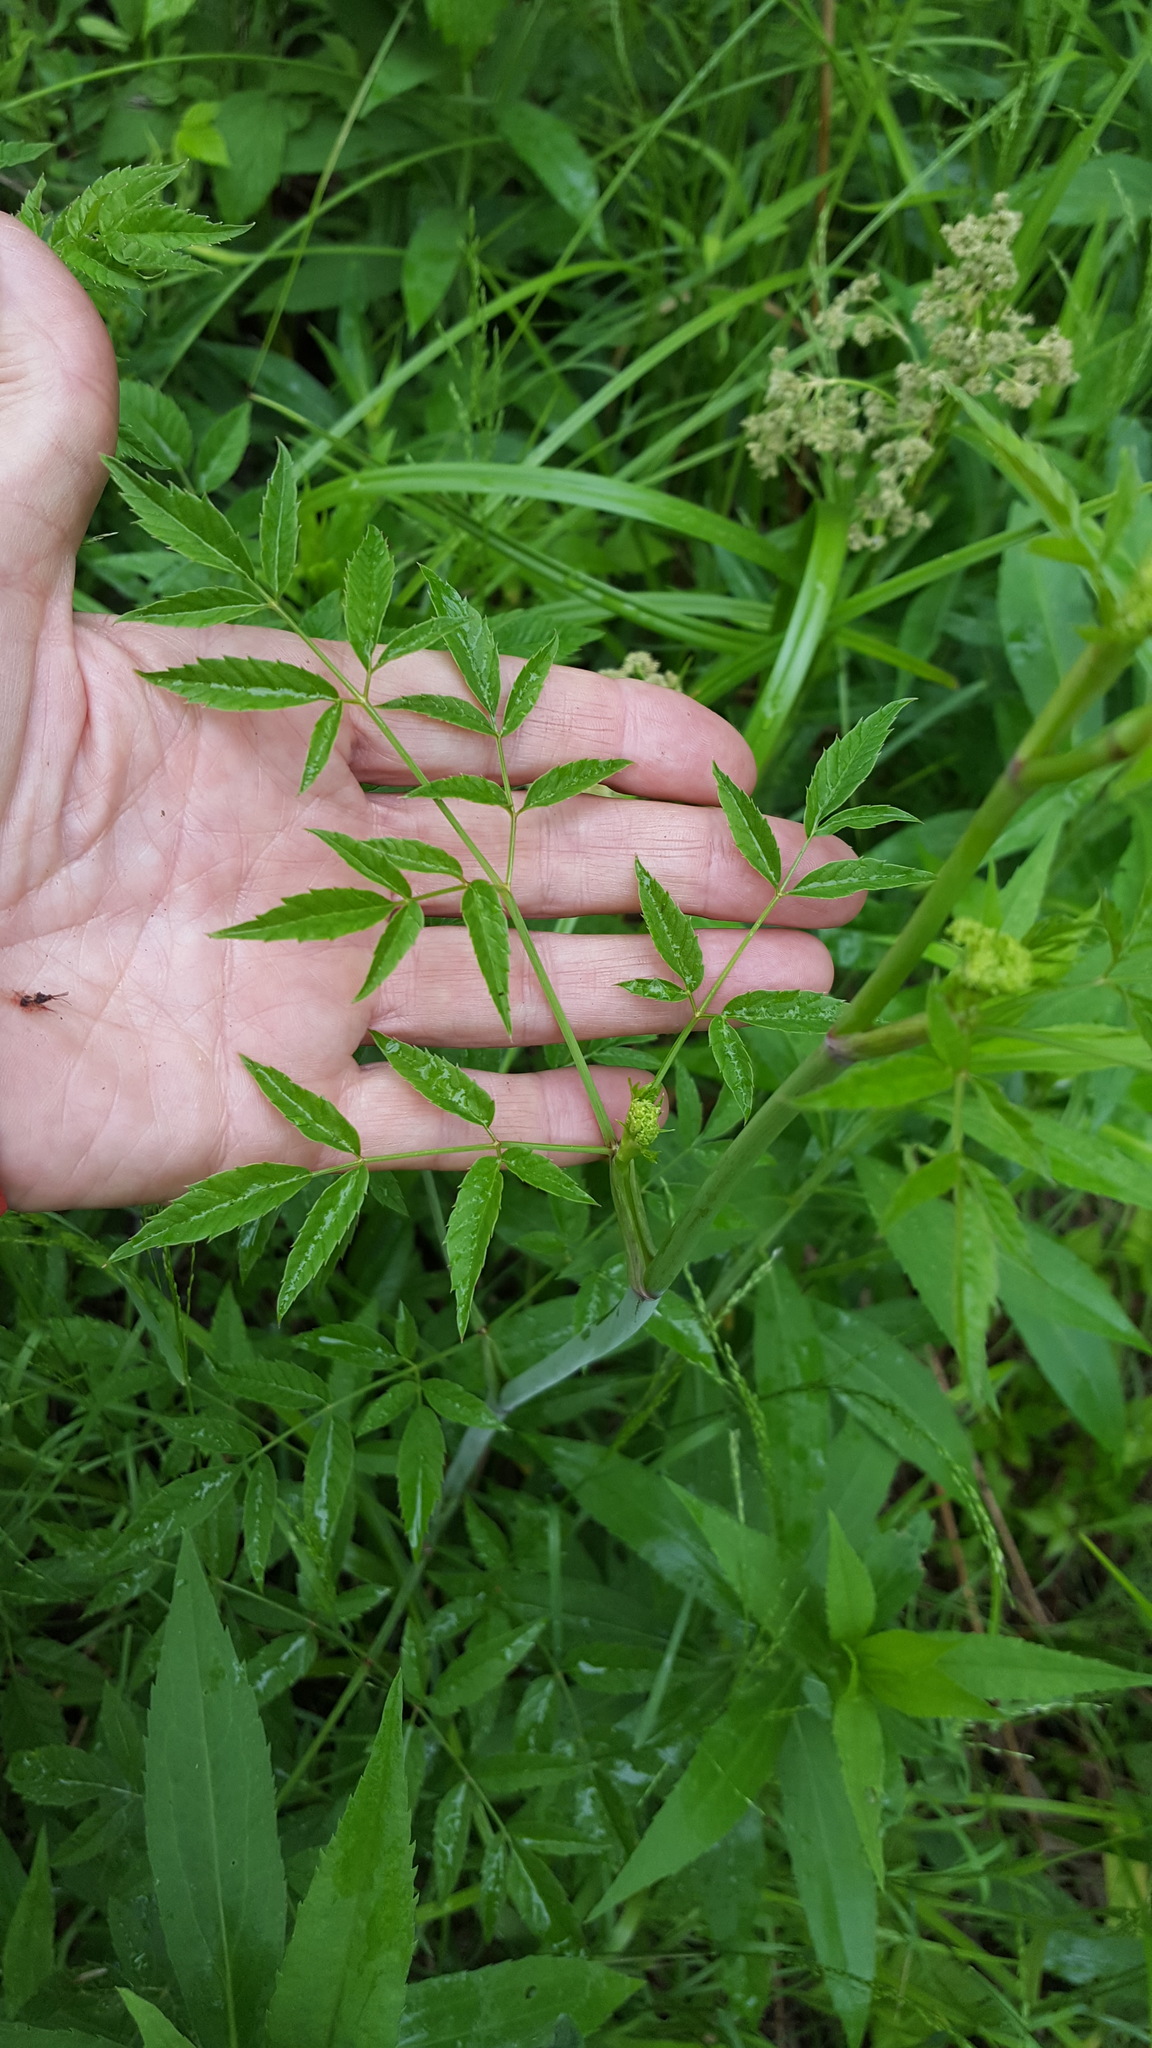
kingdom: Plantae
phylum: Tracheophyta
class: Magnoliopsida
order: Apiales
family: Apiaceae
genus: Cicuta
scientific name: Cicuta maculata
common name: Spotted cowbane
